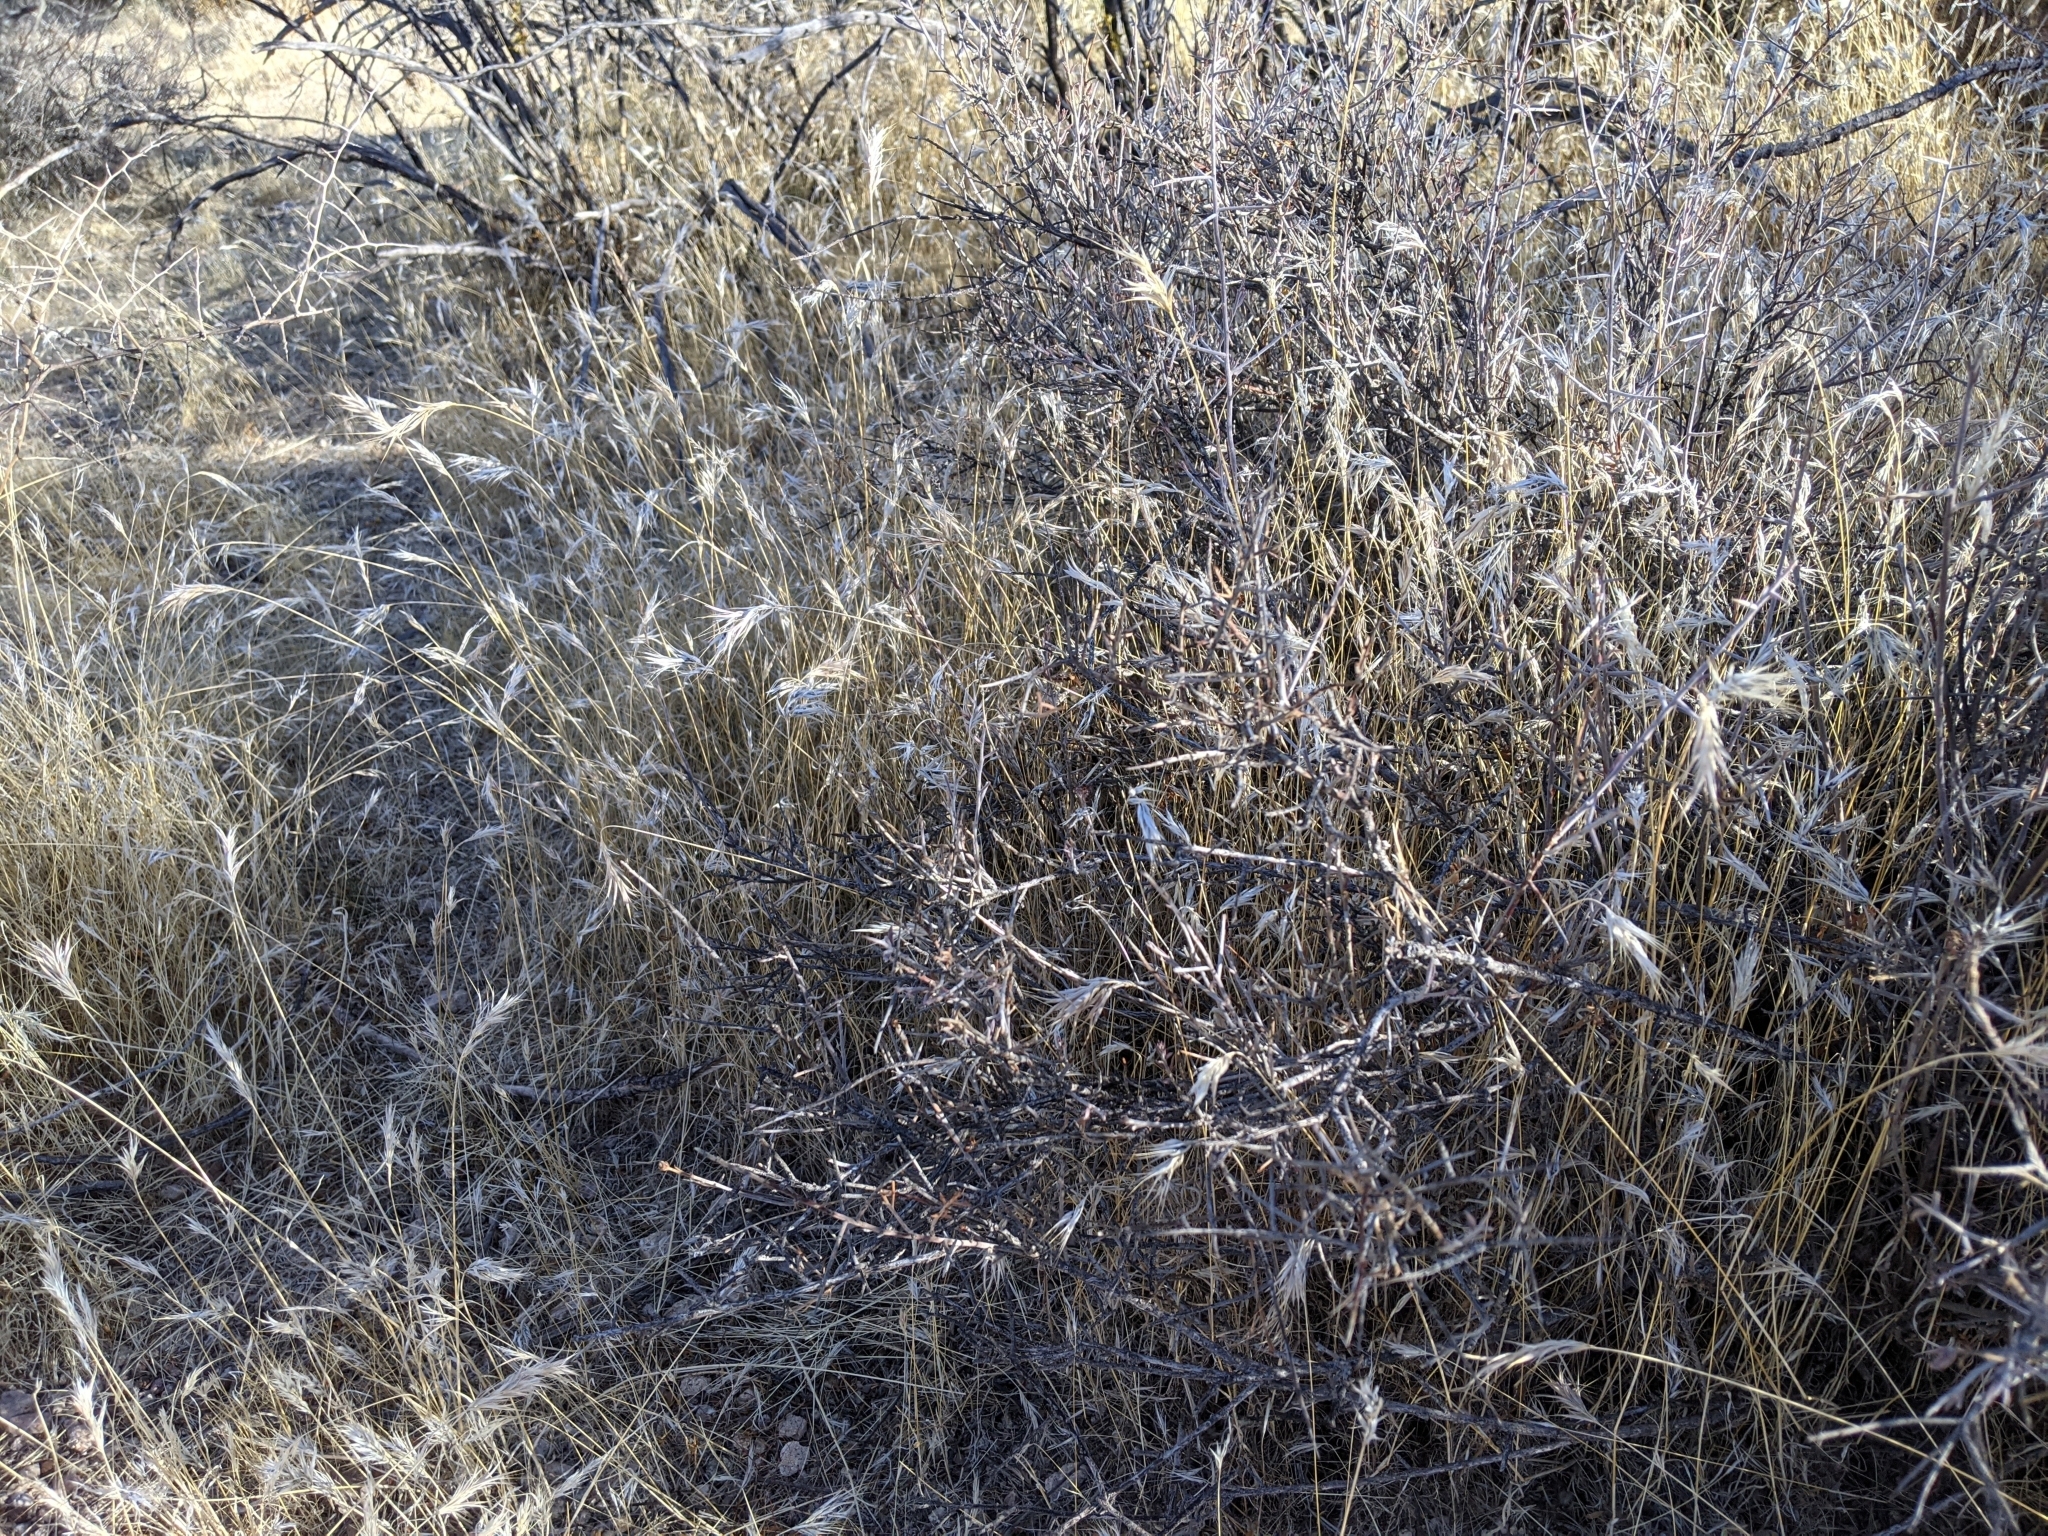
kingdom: Plantae
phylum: Tracheophyta
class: Liliopsida
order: Poales
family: Poaceae
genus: Bromus
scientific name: Bromus rubens
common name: Red brome
